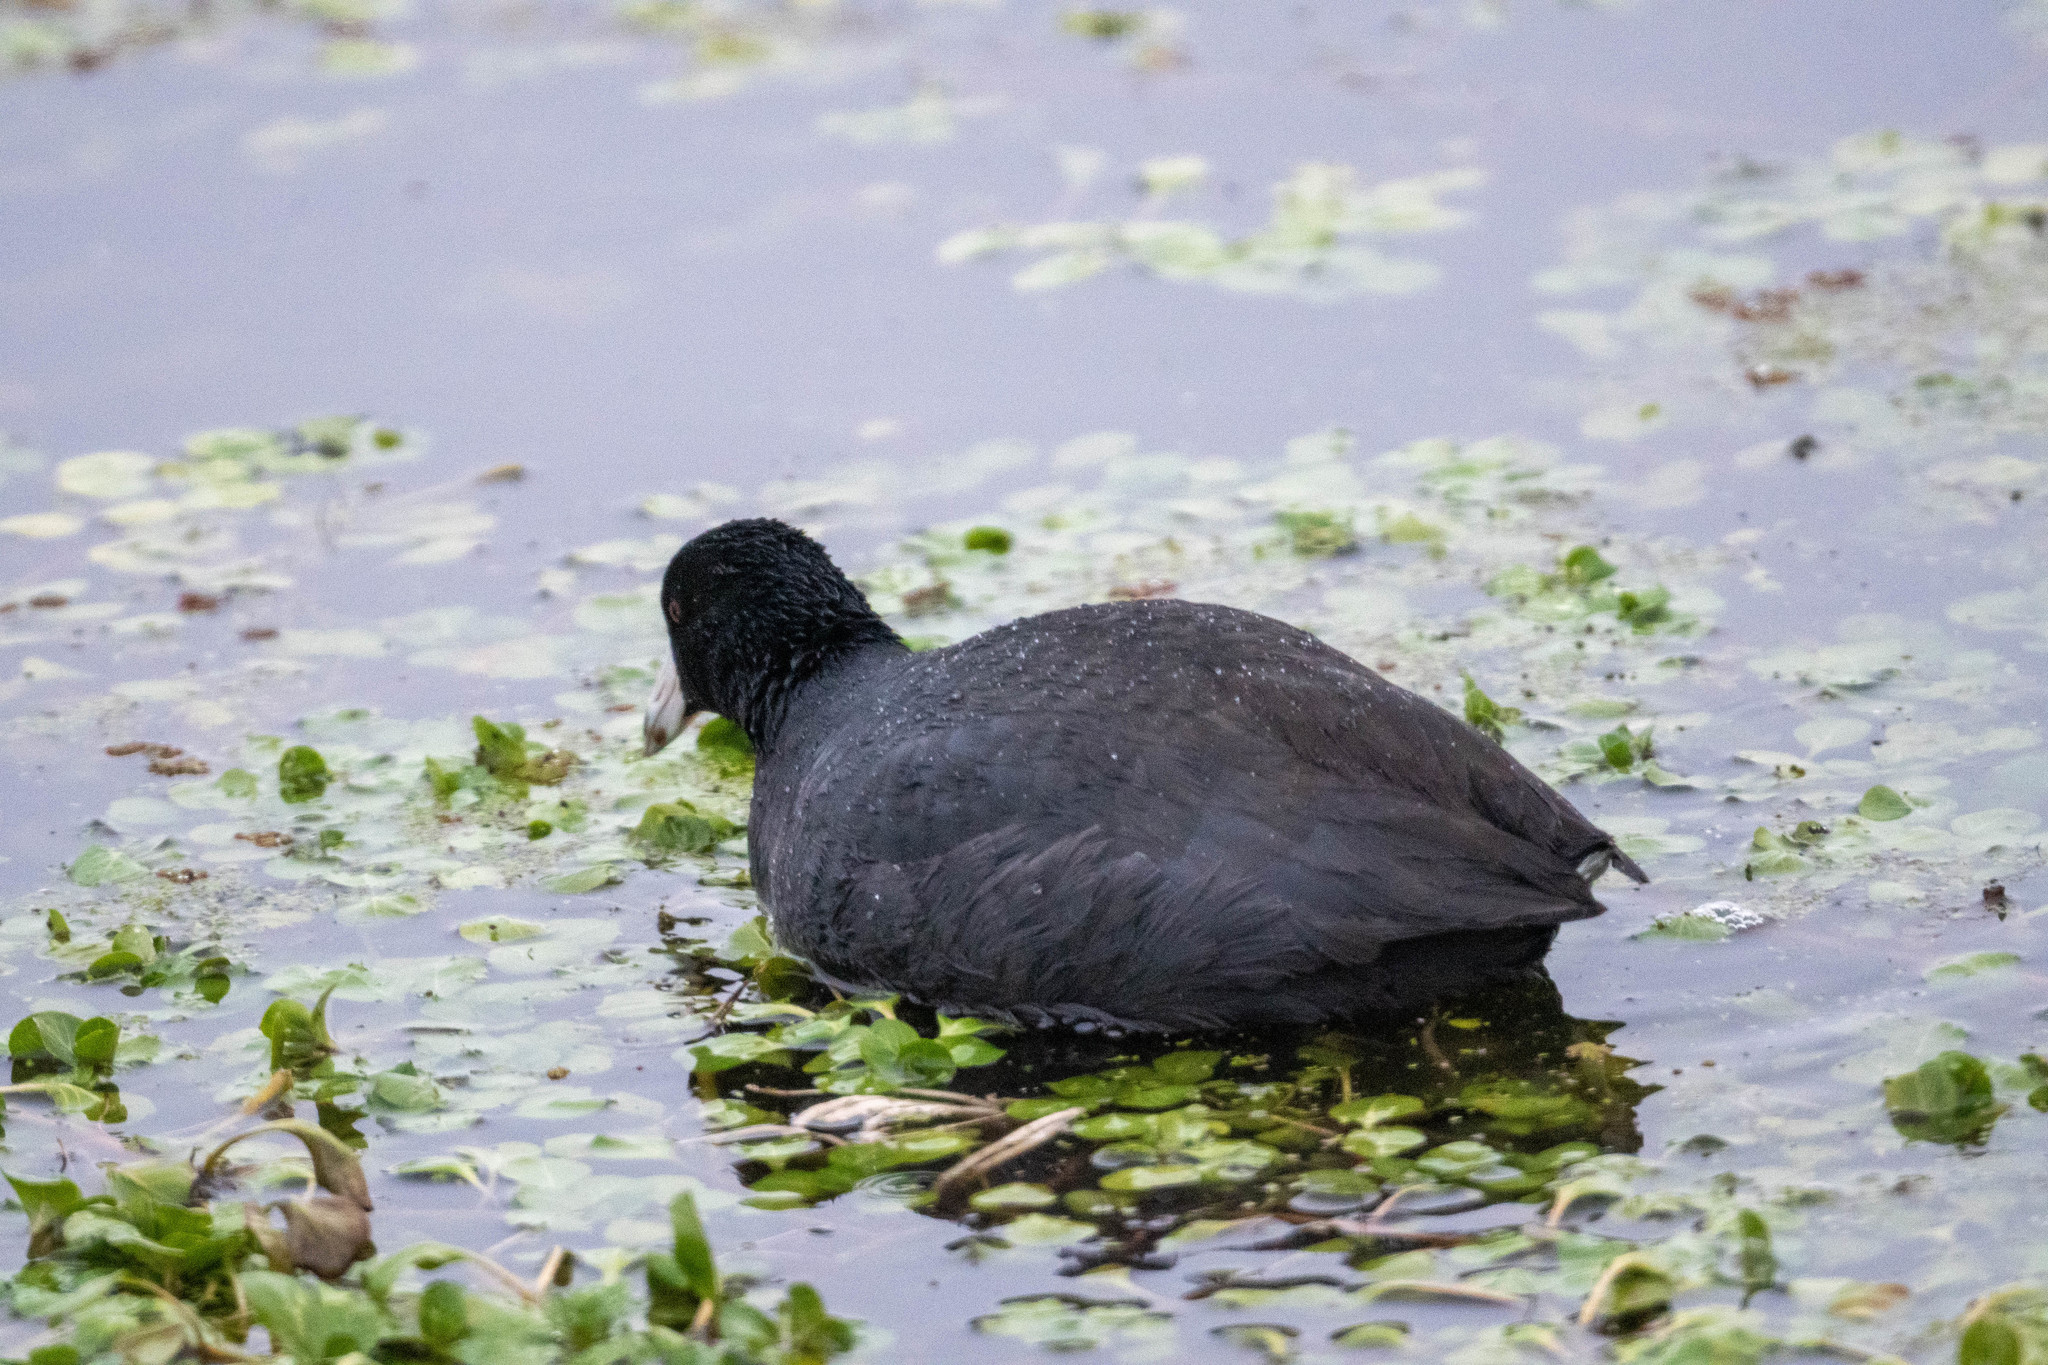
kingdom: Animalia
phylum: Chordata
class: Aves
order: Gruiformes
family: Rallidae
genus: Fulica
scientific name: Fulica americana
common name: American coot
